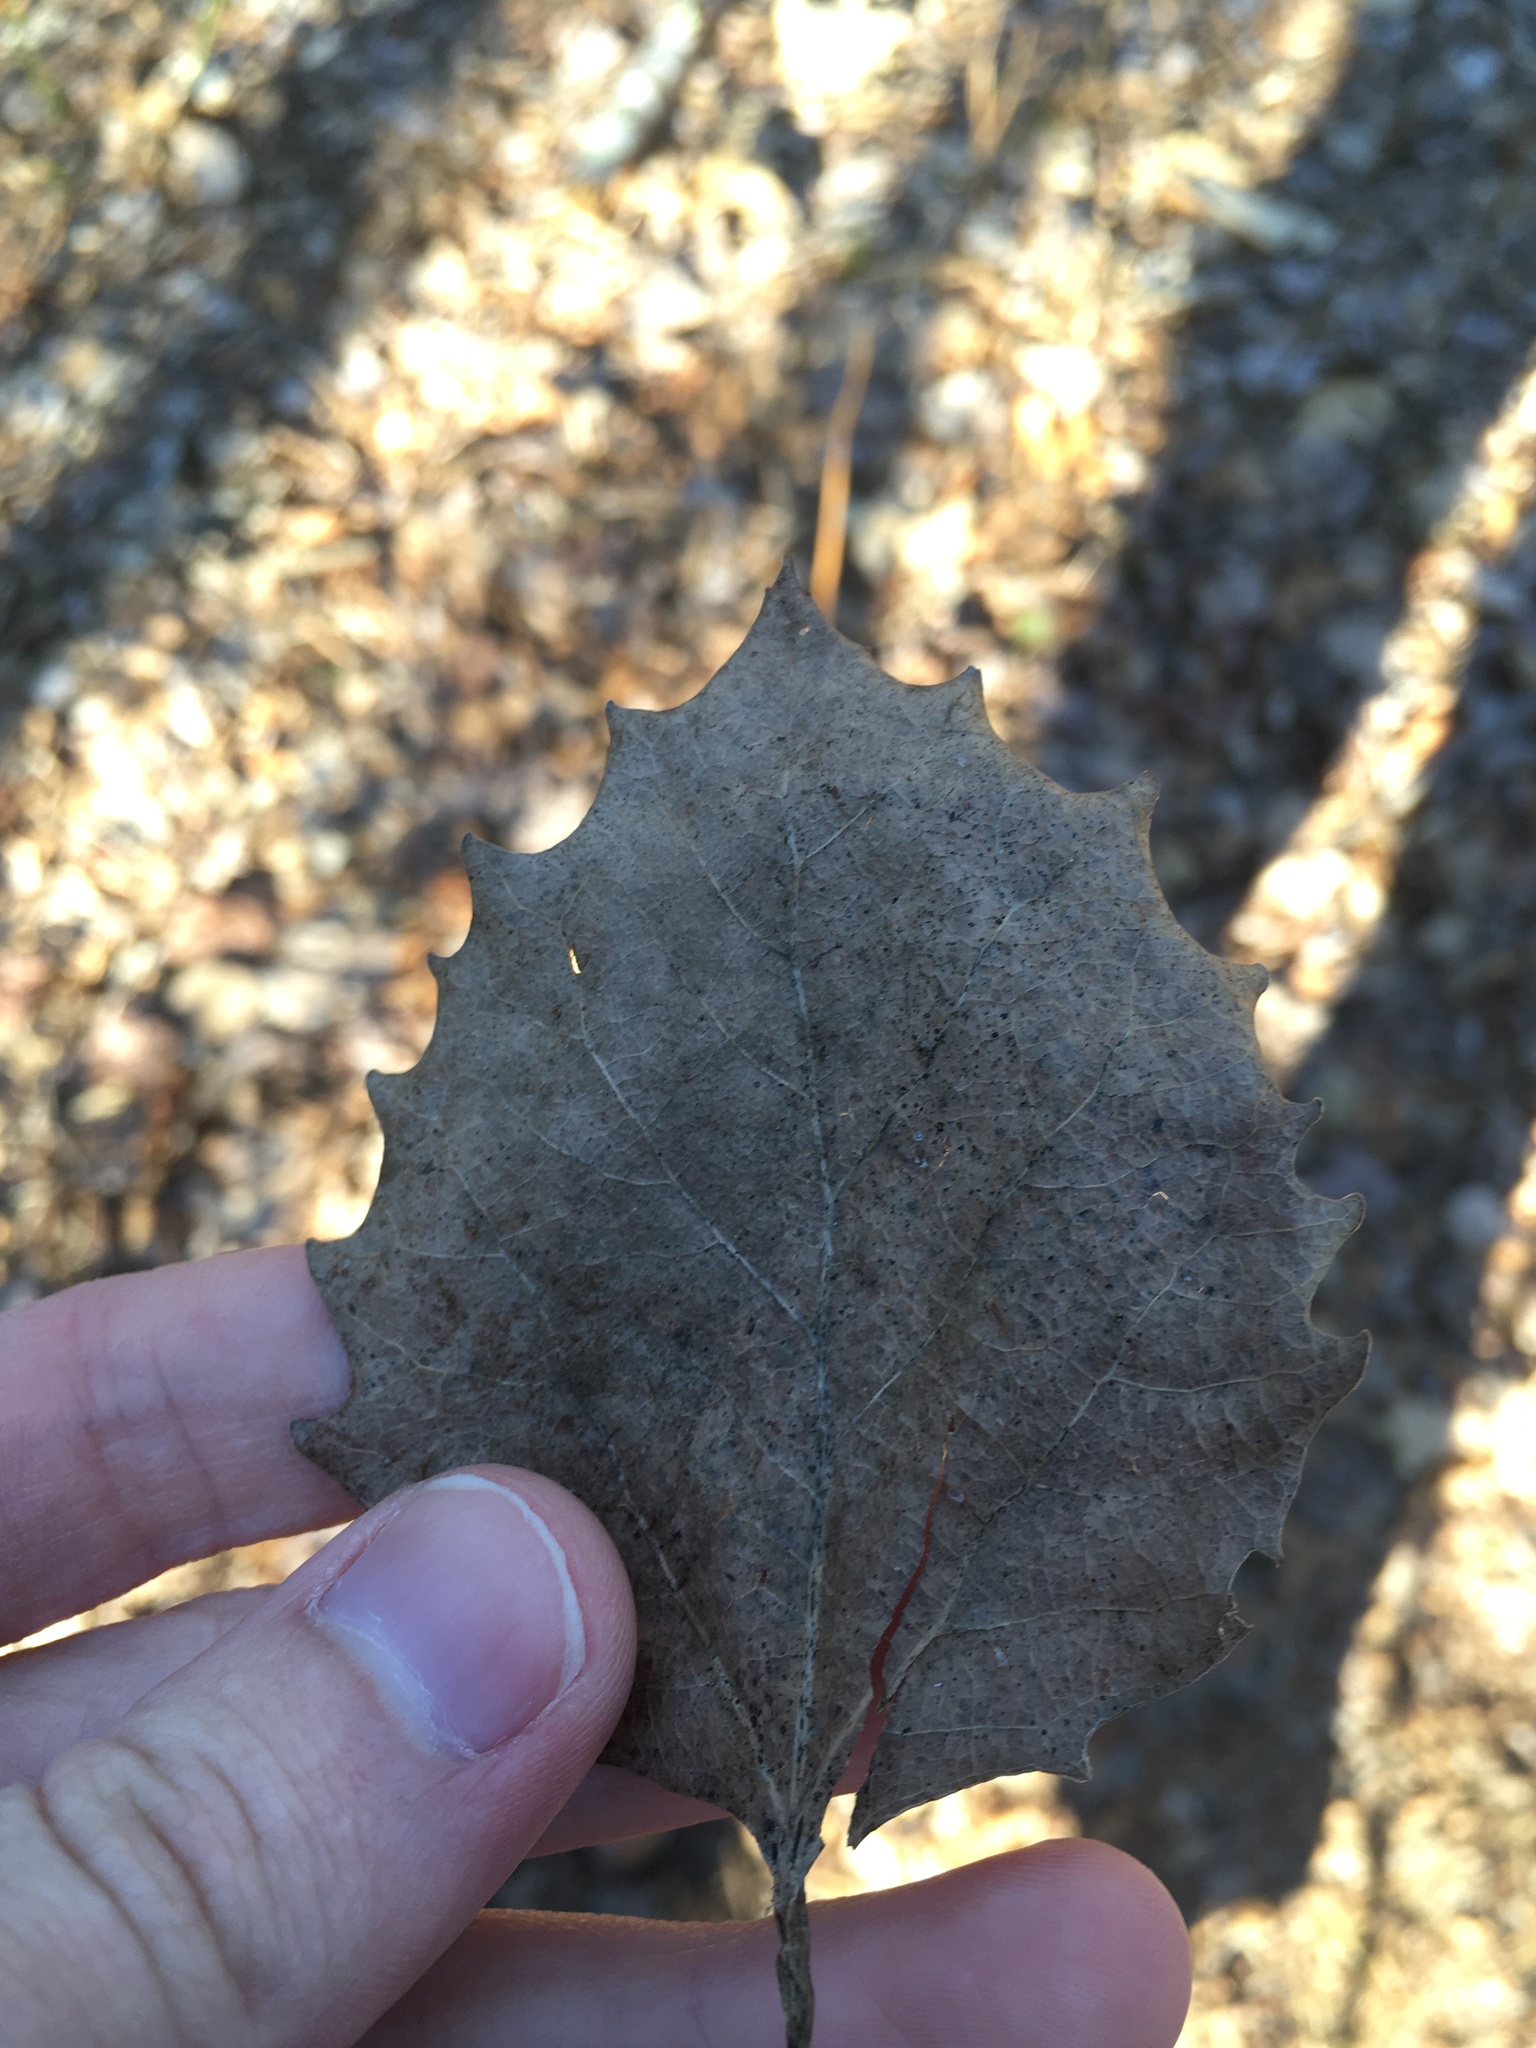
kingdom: Plantae
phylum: Tracheophyta
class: Magnoliopsida
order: Malpighiales
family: Salicaceae
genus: Populus
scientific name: Populus grandidentata
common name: Bigtooth aspen
